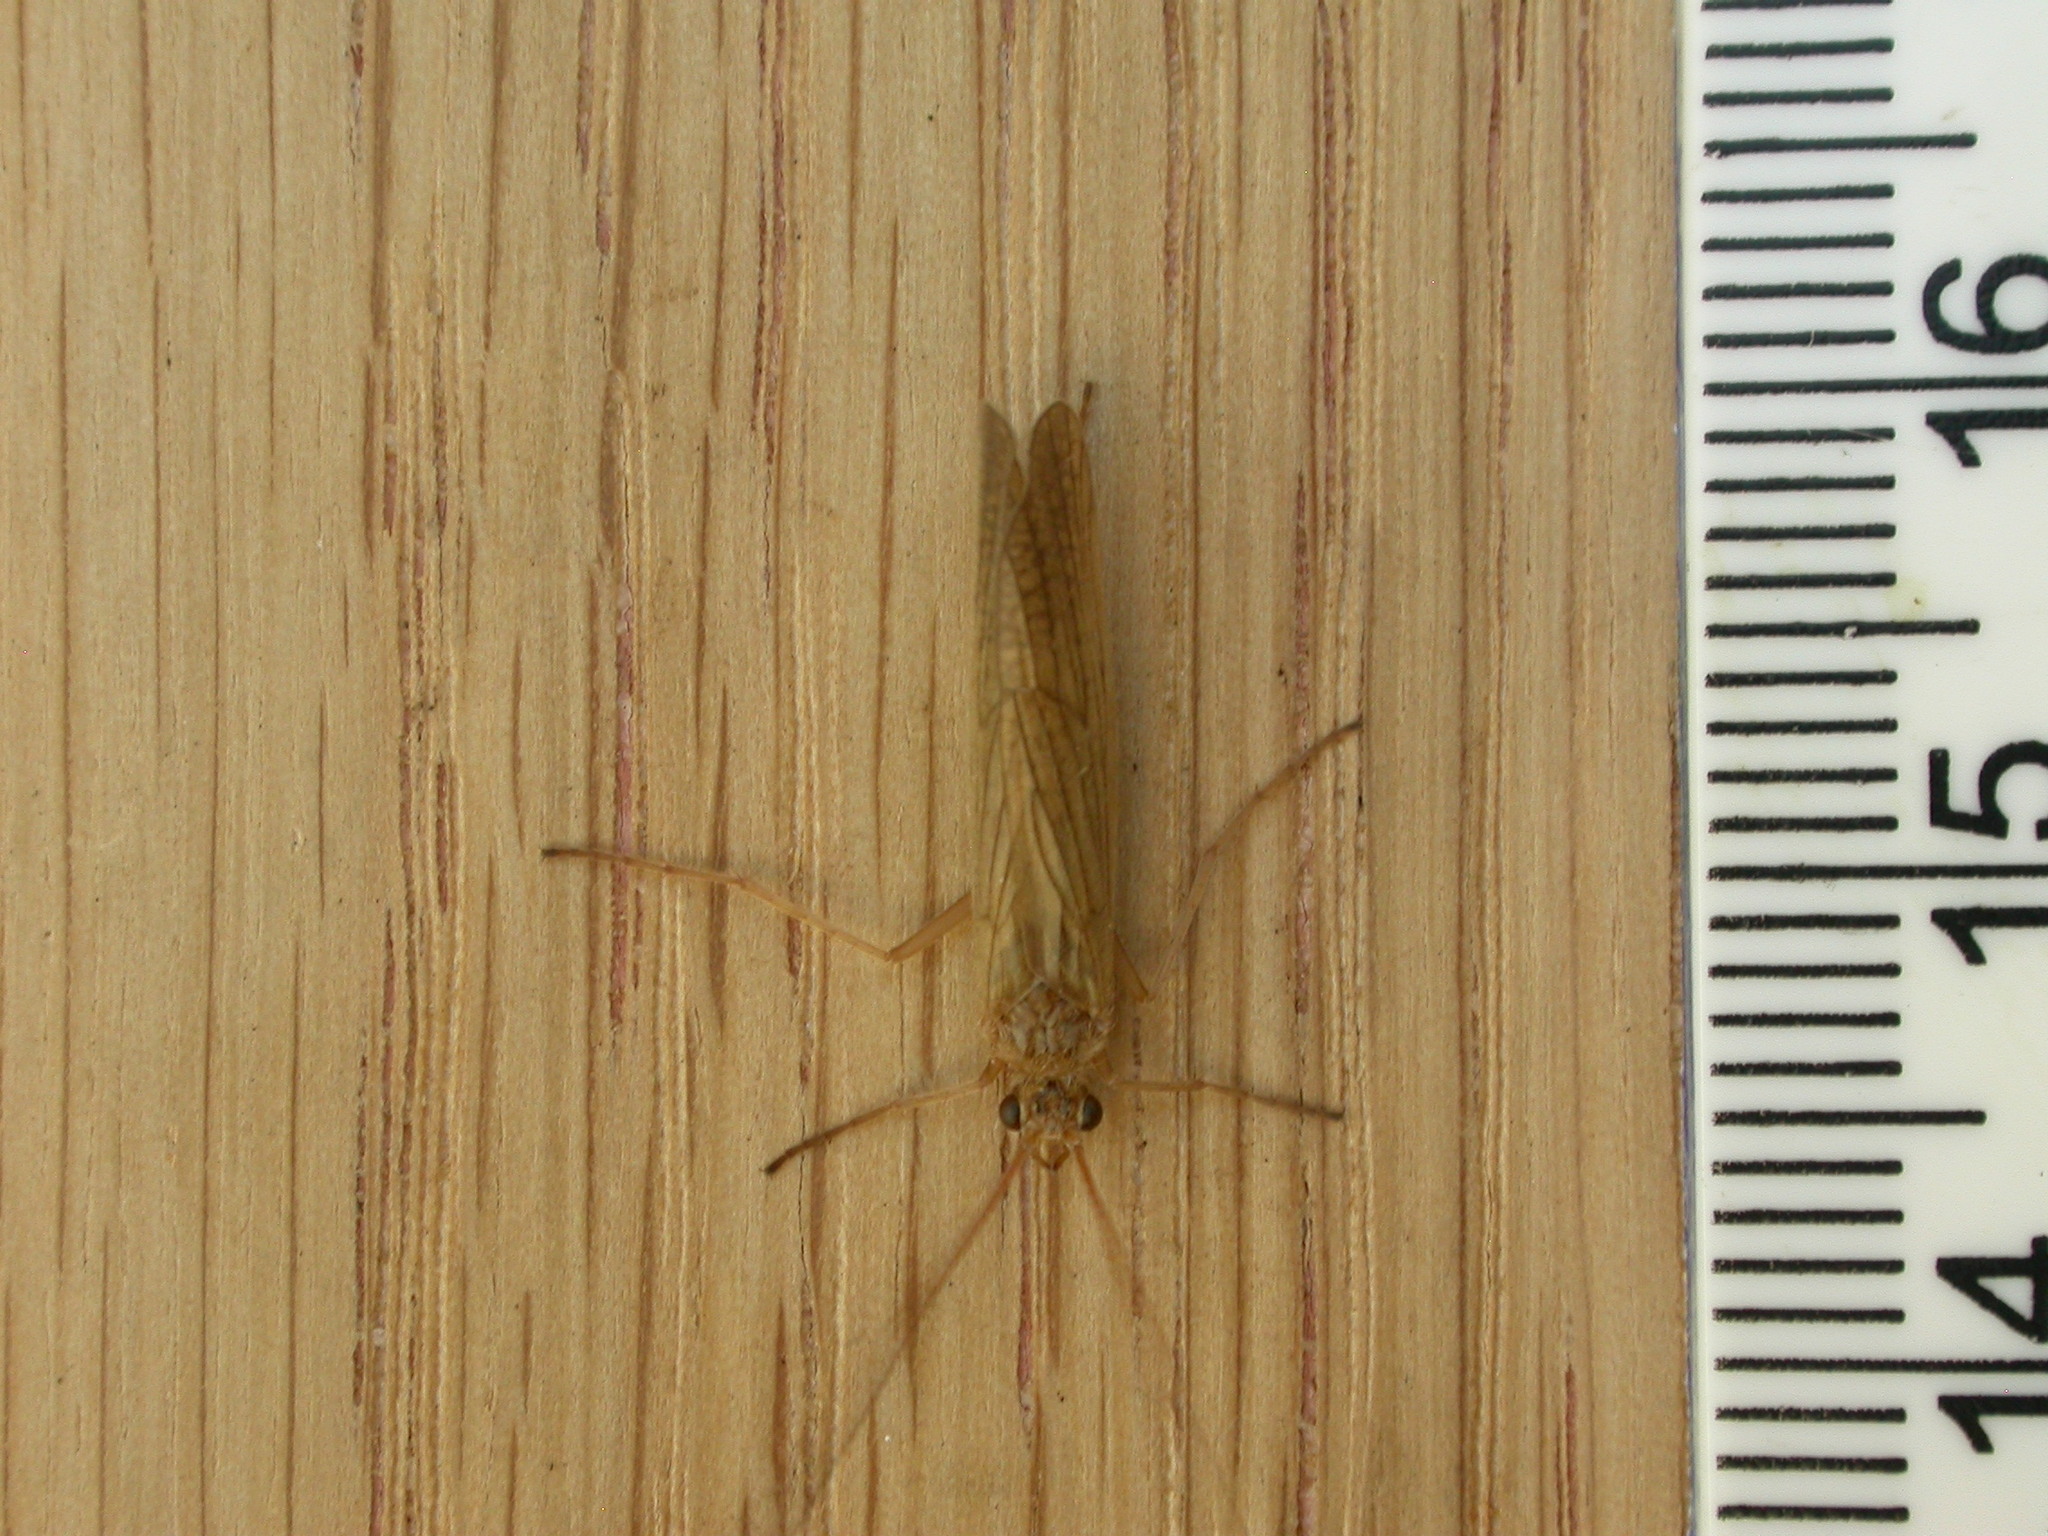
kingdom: Animalia
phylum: Arthropoda
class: Insecta
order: Trichoptera
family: Phryganeidae
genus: Agrypnia
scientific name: Agrypnia pagetana
